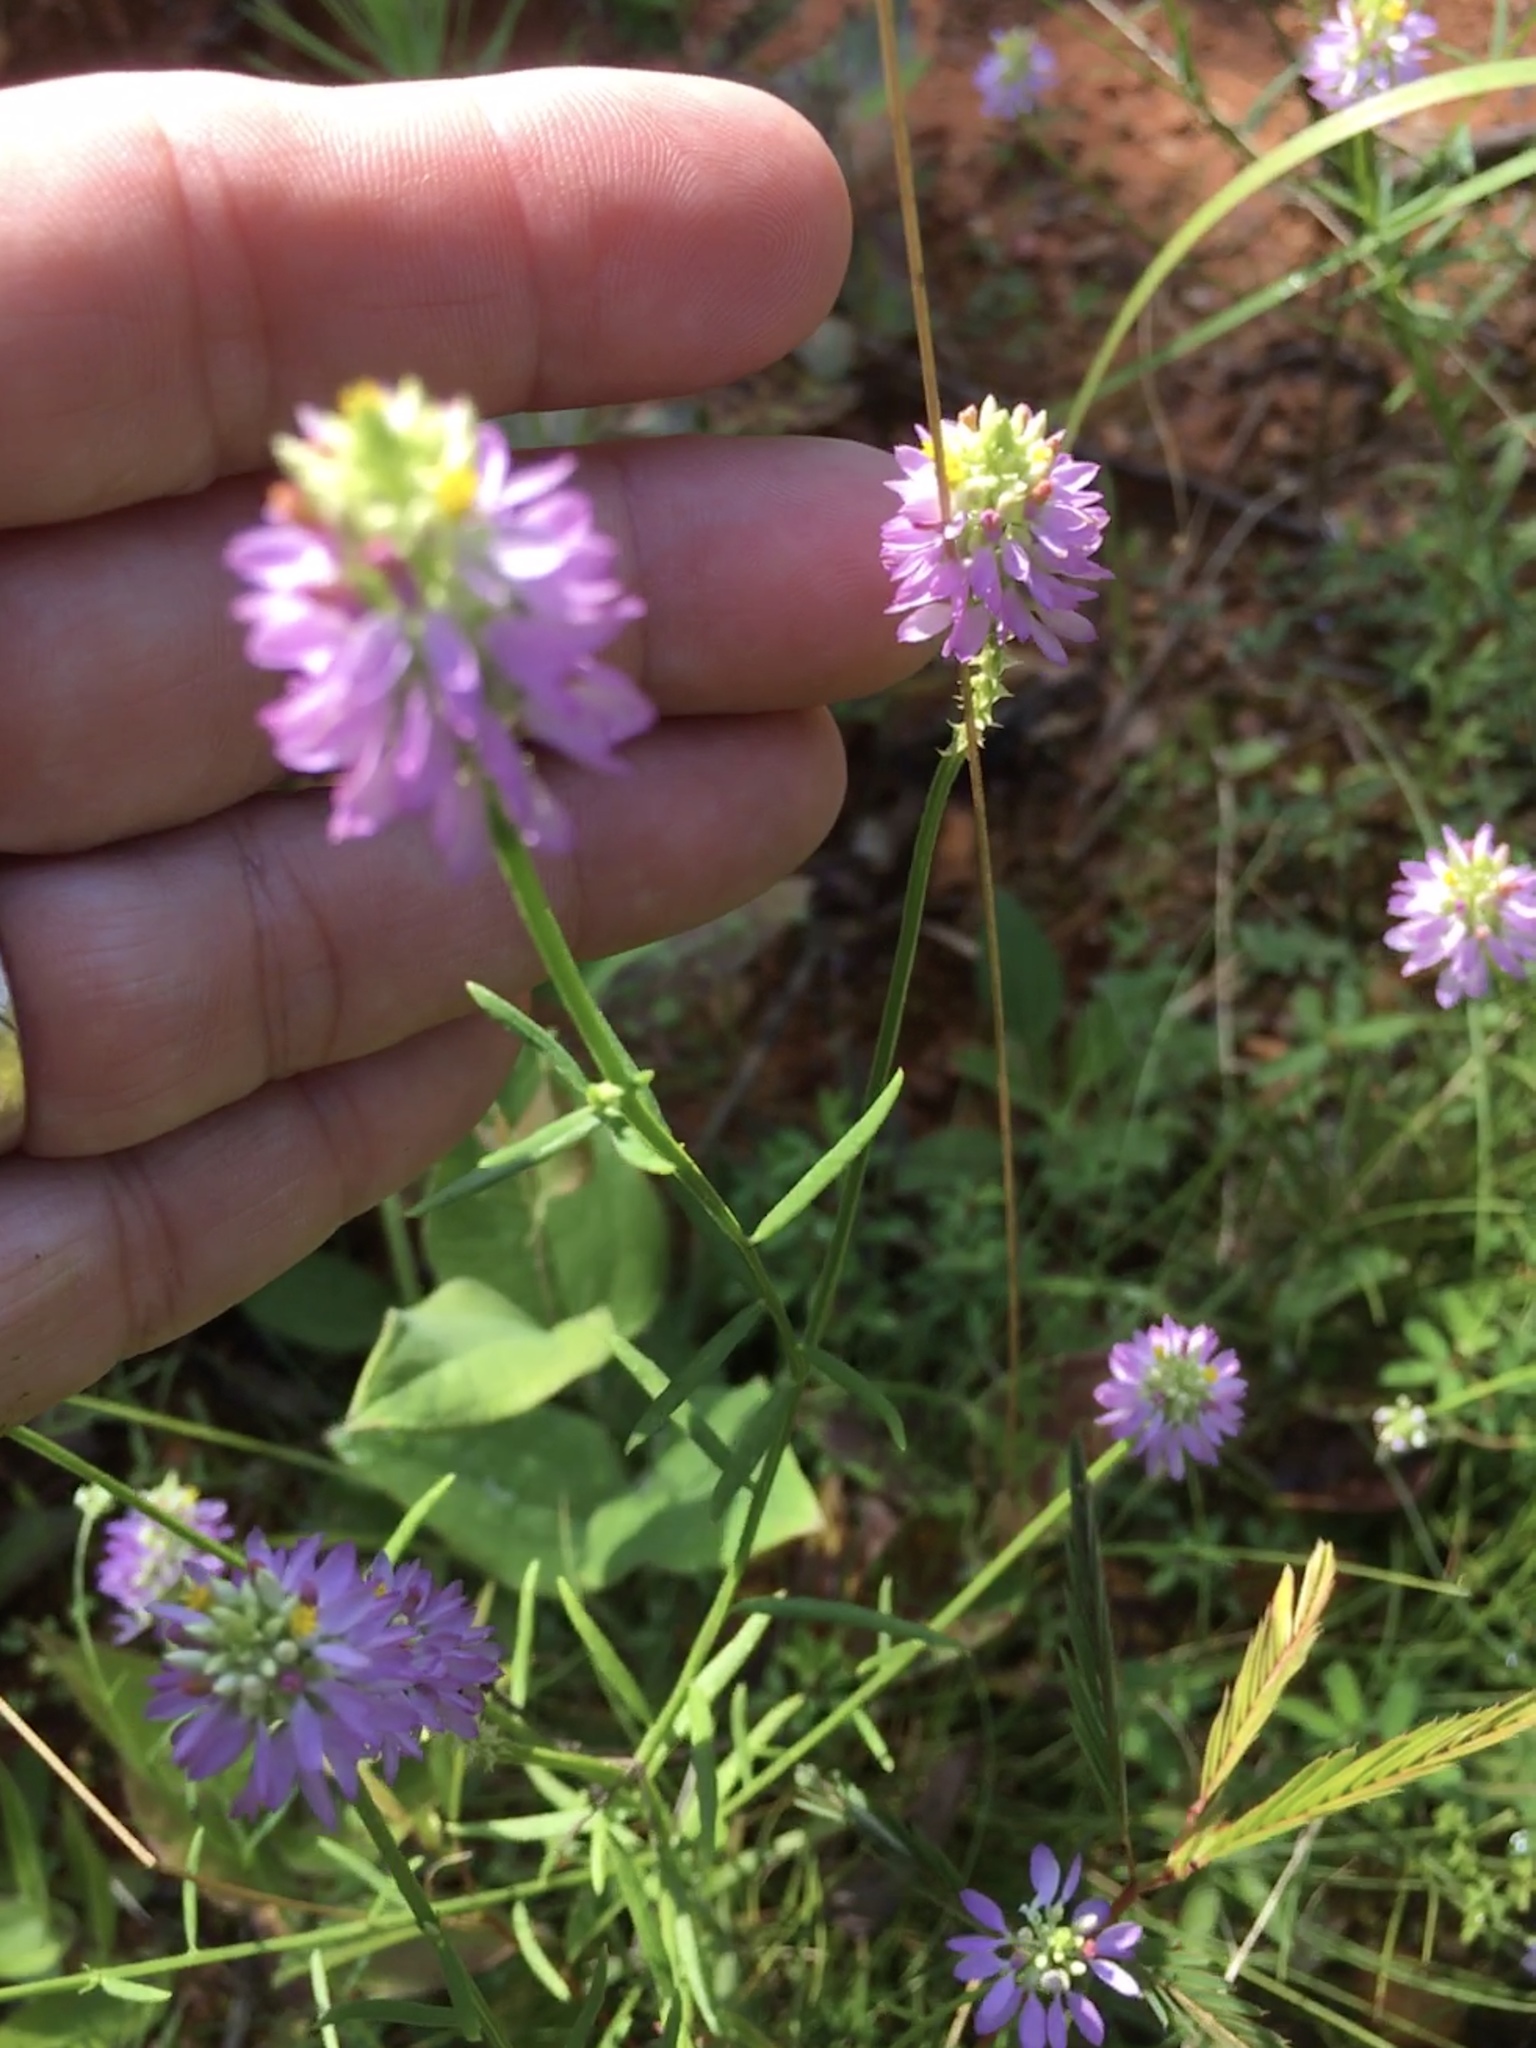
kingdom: Plantae
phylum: Tracheophyta
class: Magnoliopsida
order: Fabales
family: Polygalaceae
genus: Polygala
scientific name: Polygala curtissii
